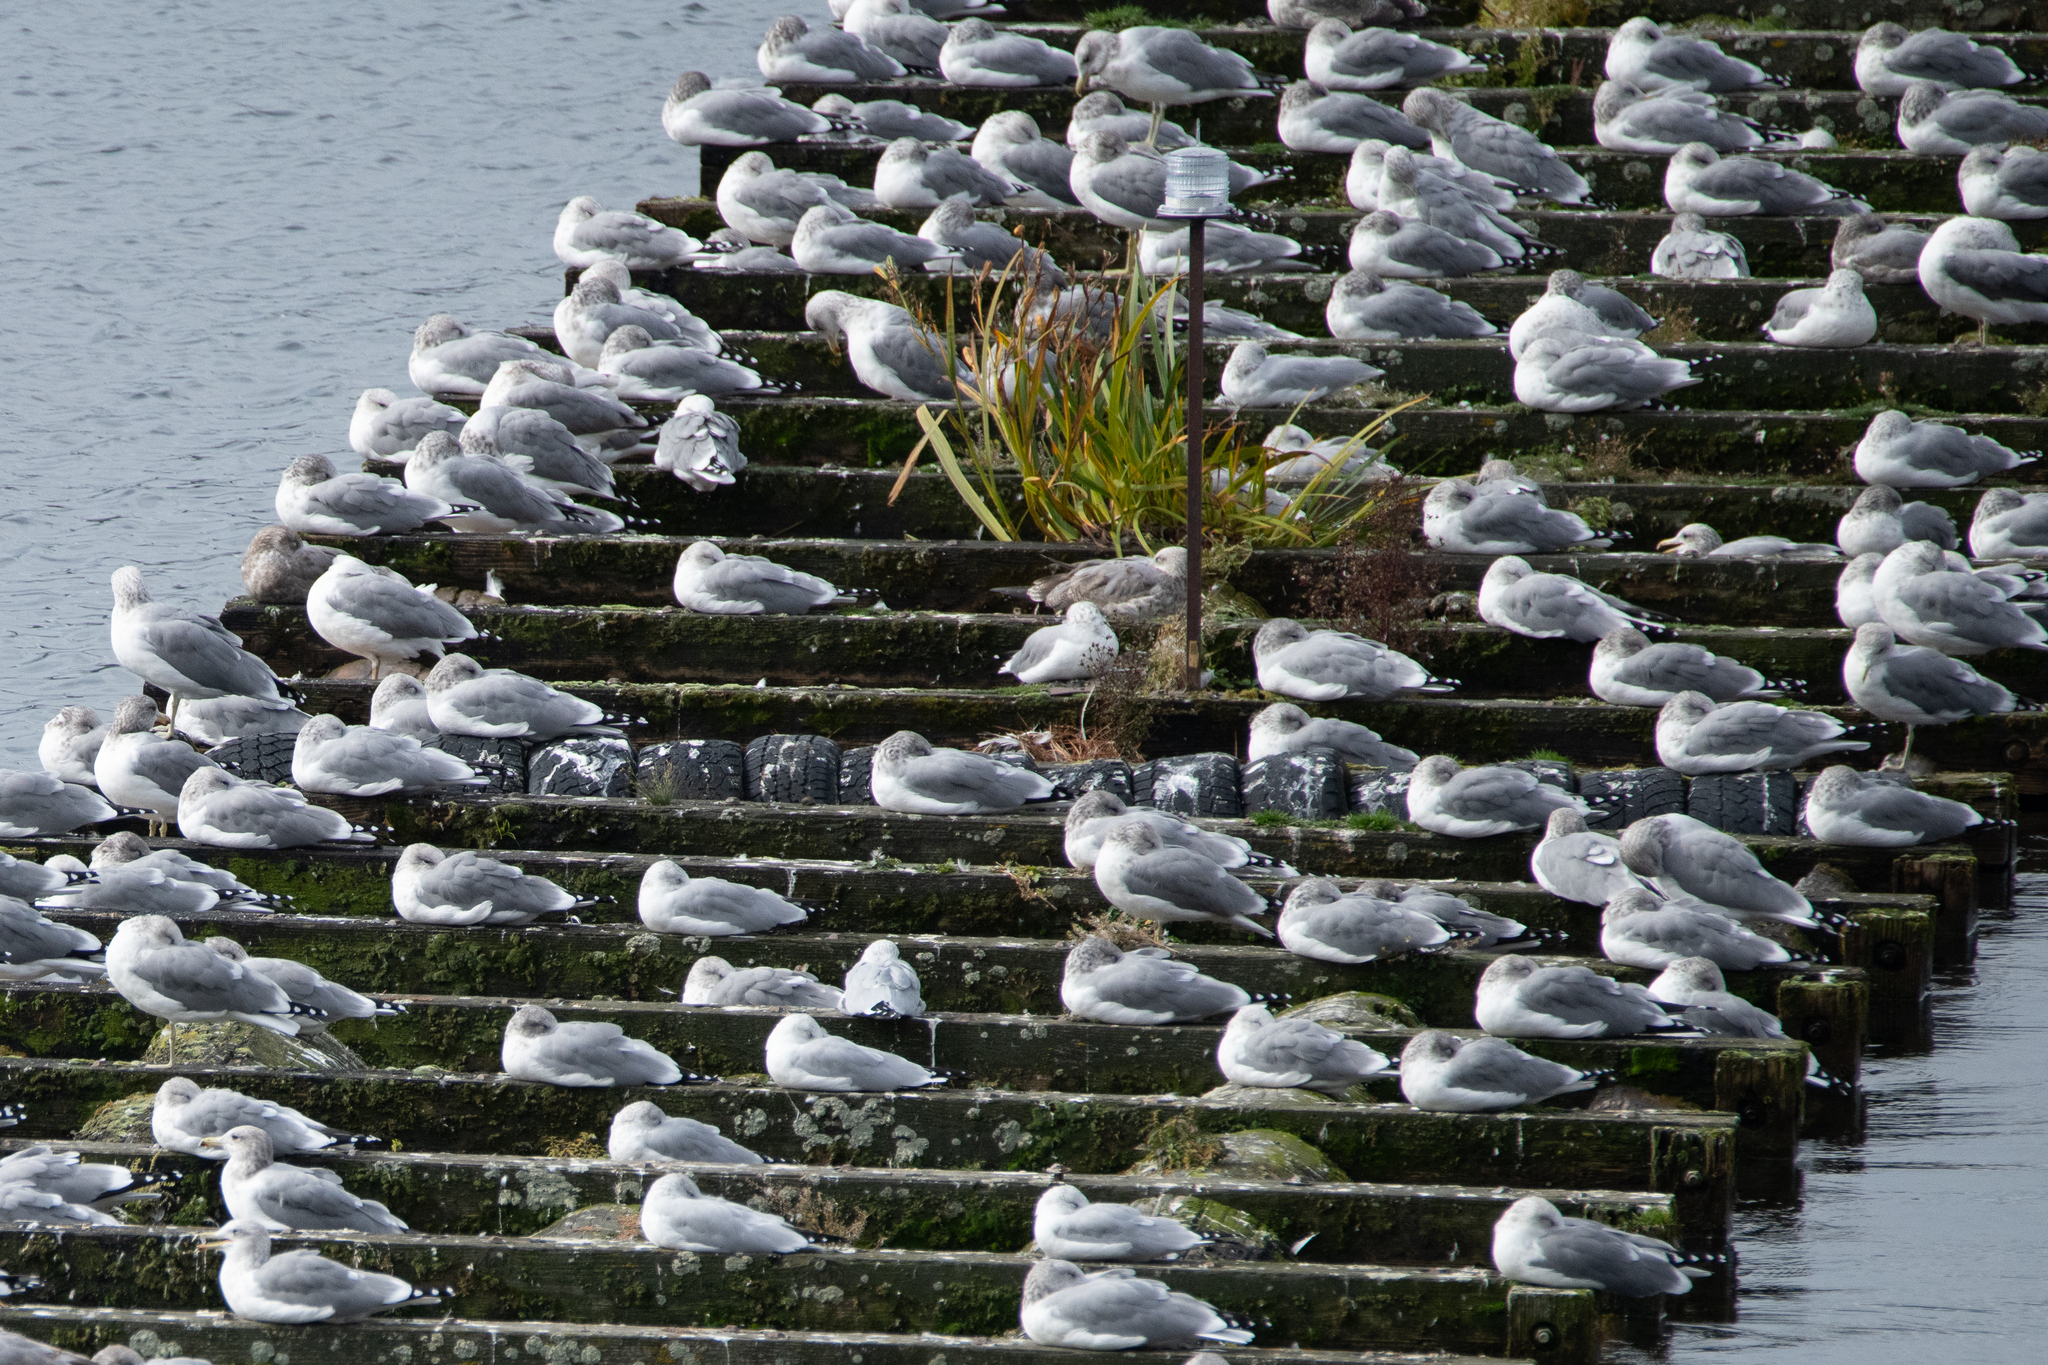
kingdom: Animalia
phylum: Chordata
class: Aves
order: Charadriiformes
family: Laridae
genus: Larus
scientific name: Larus californicus
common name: California gull
